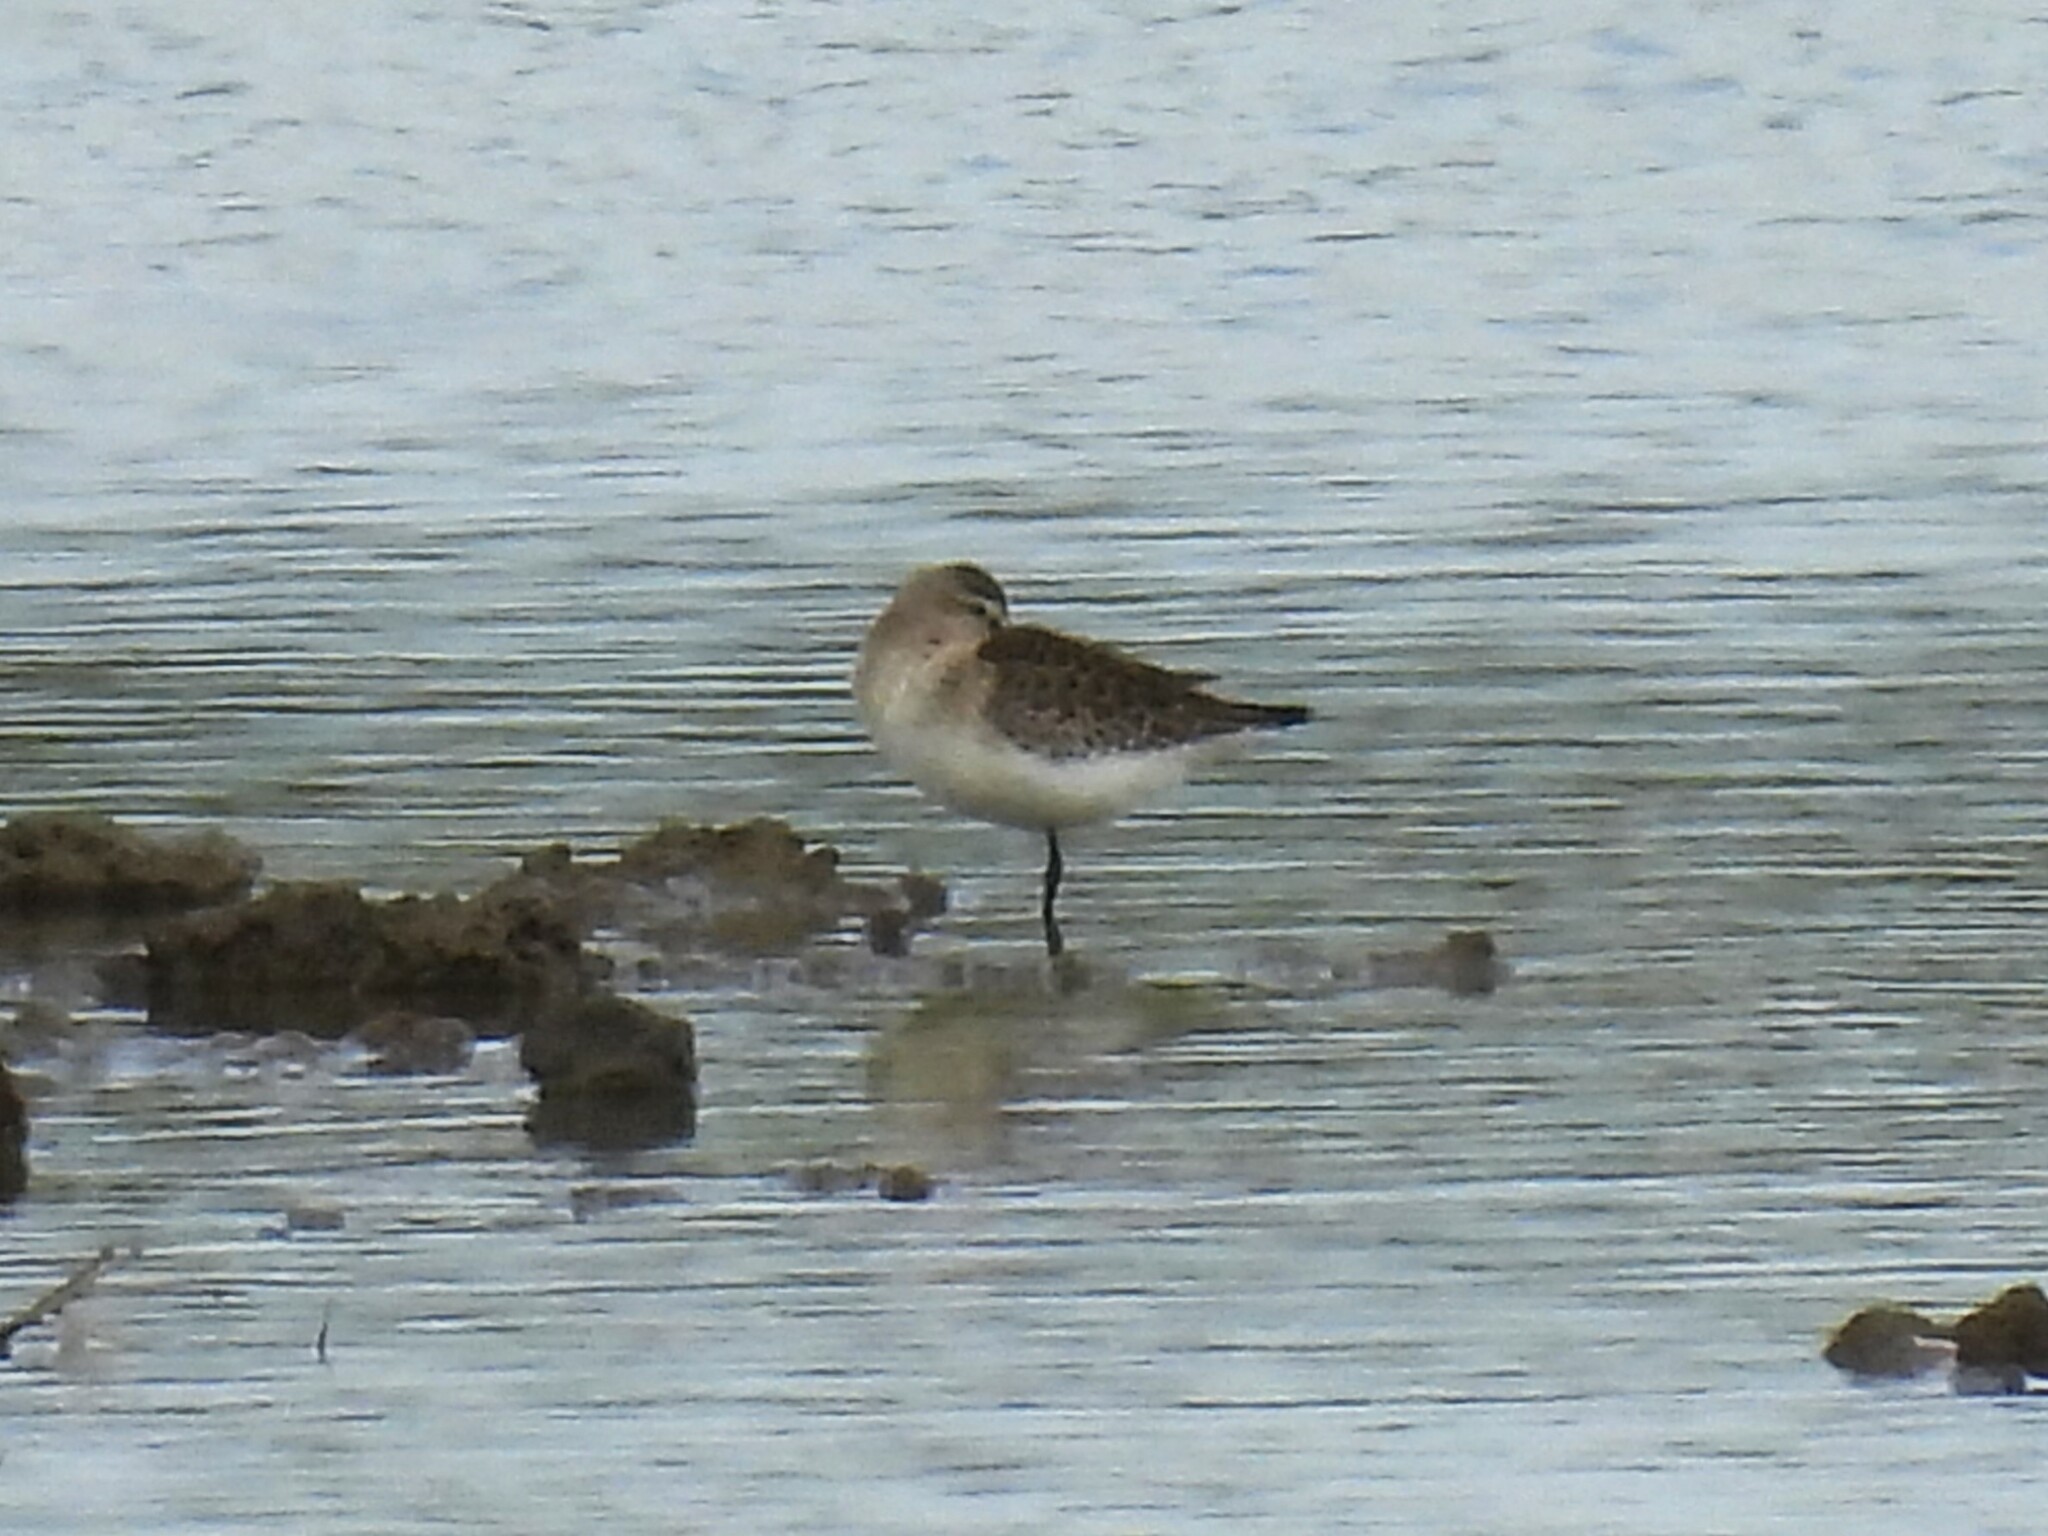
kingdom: Animalia
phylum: Chordata
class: Aves
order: Charadriiformes
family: Scolopacidae
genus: Calidris
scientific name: Calidris ferruginea
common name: Curlew sandpiper
